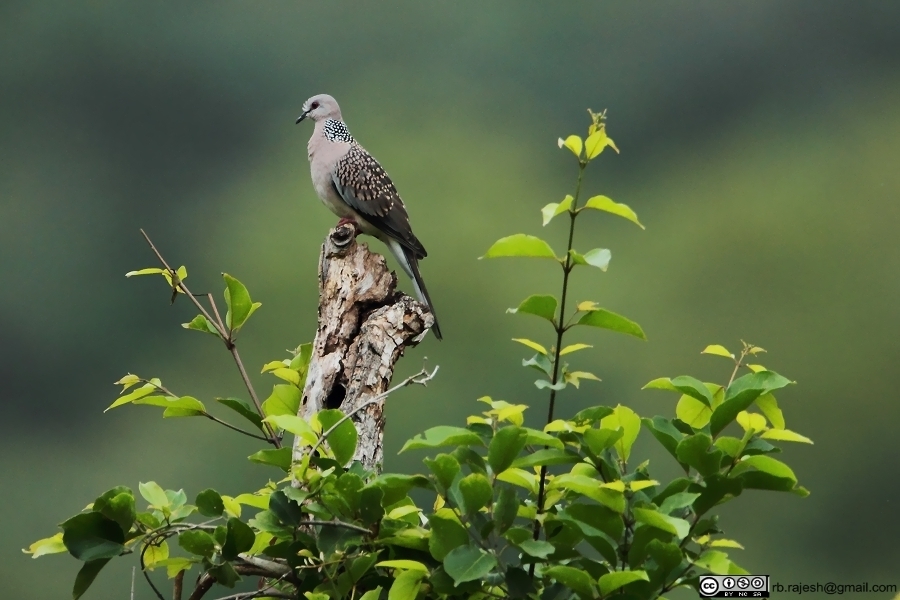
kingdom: Animalia
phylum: Chordata
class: Aves
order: Columbiformes
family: Columbidae
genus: Spilopelia
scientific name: Spilopelia chinensis
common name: Spotted dove
